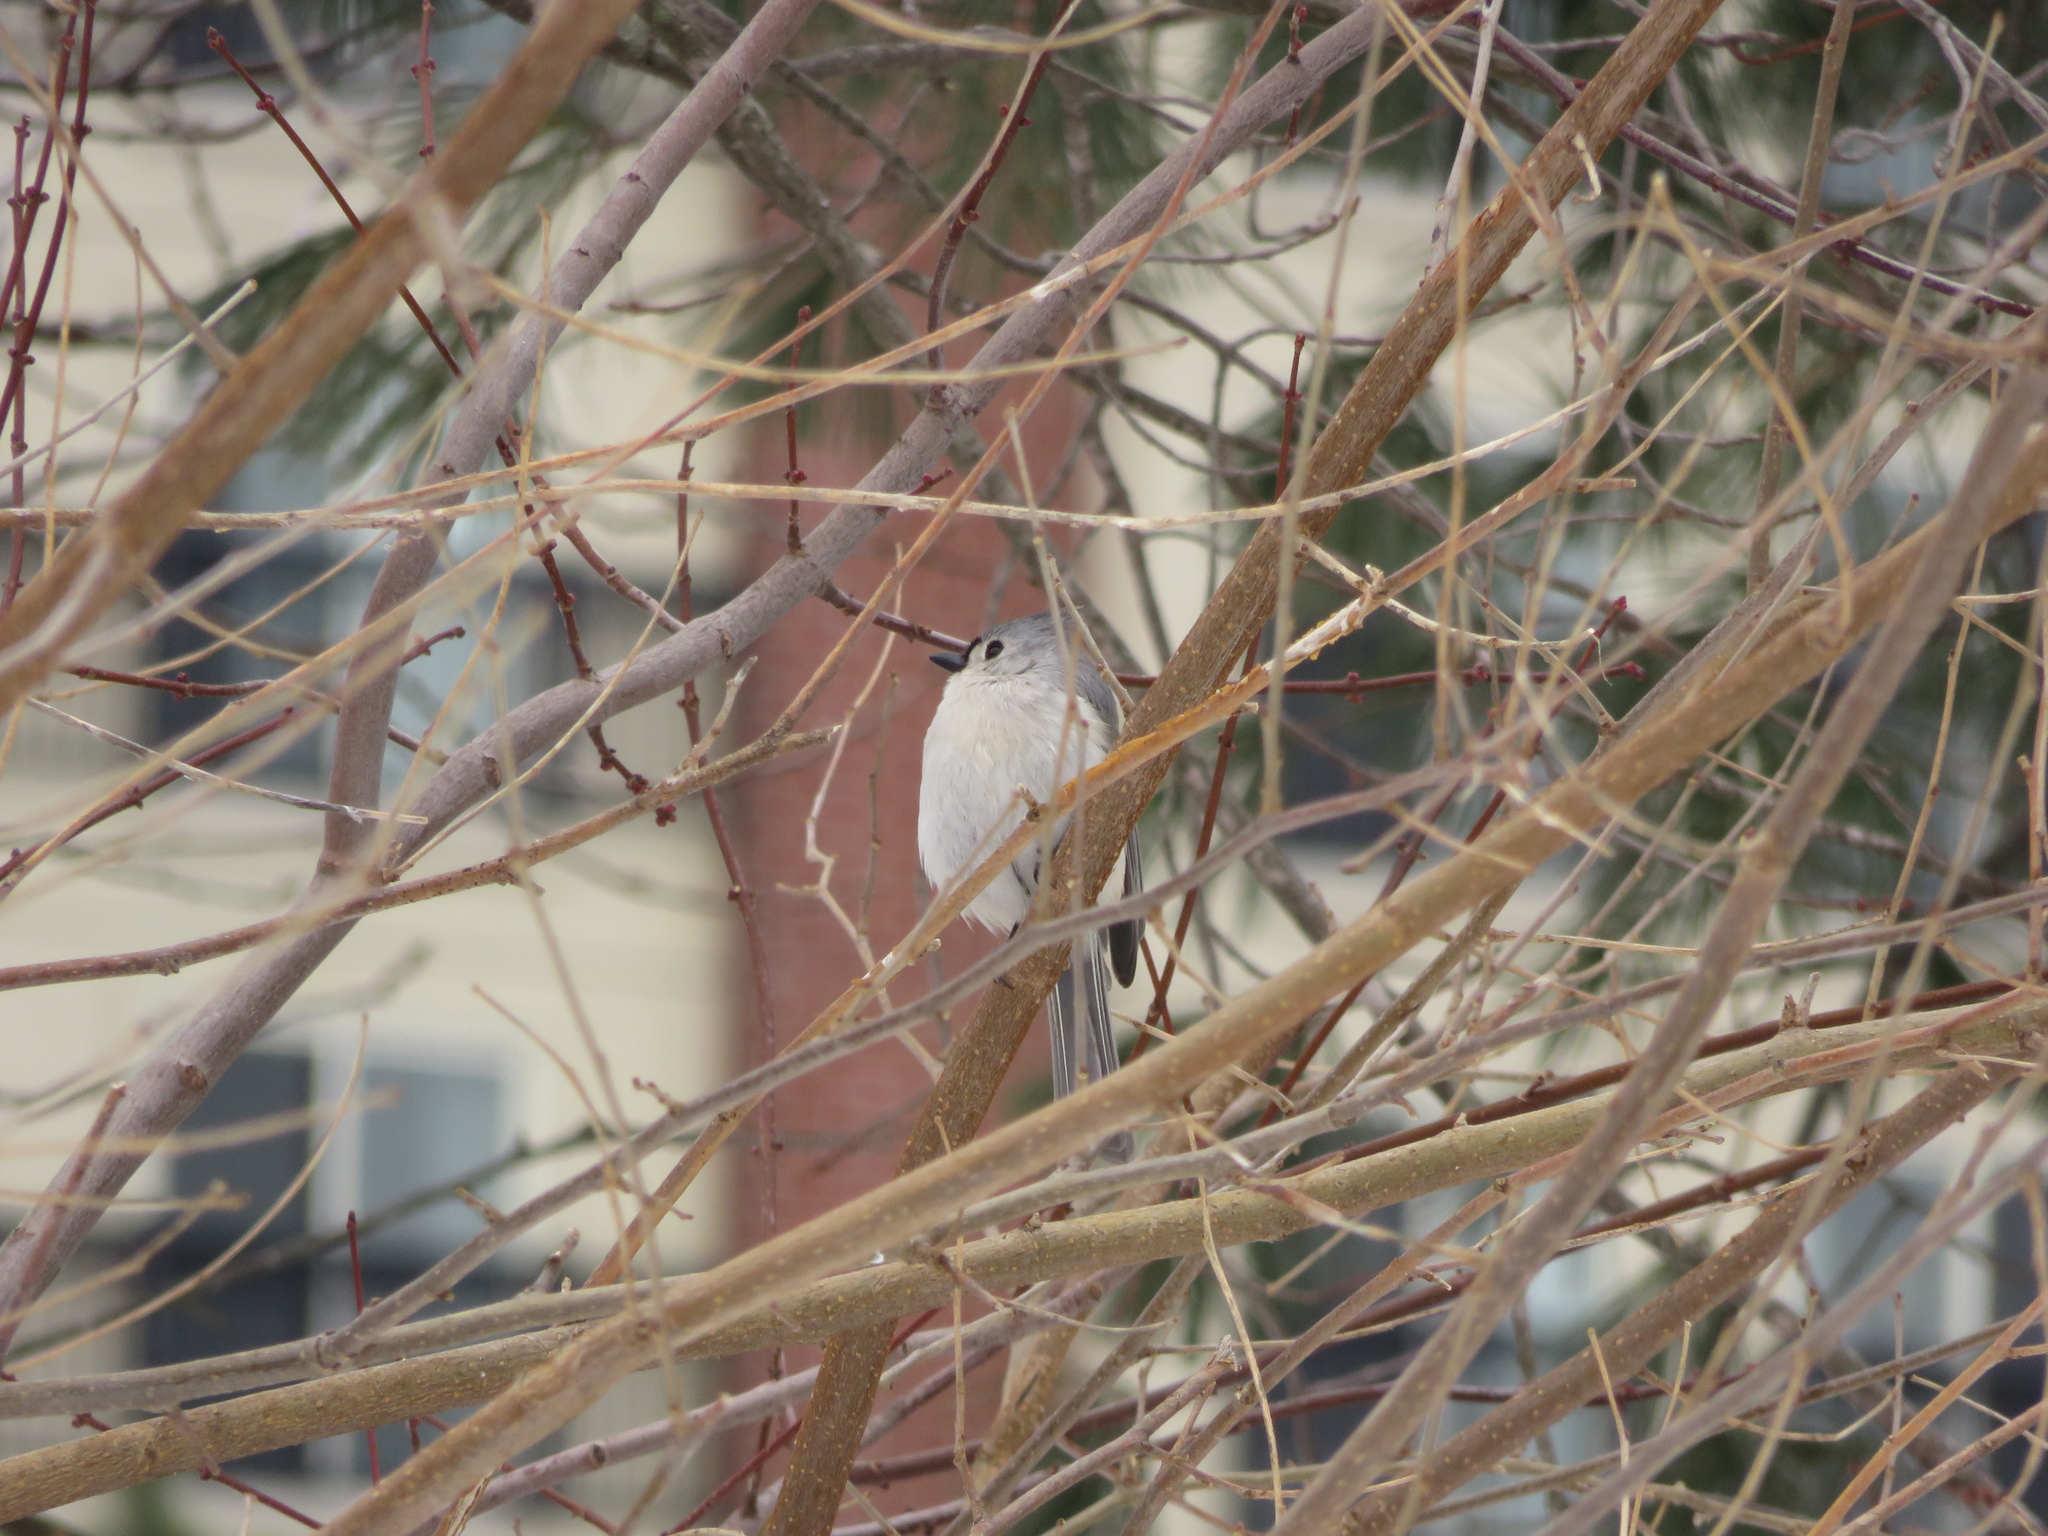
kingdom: Animalia
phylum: Chordata
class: Aves
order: Passeriformes
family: Paridae
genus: Baeolophus
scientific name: Baeolophus bicolor
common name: Tufted titmouse
